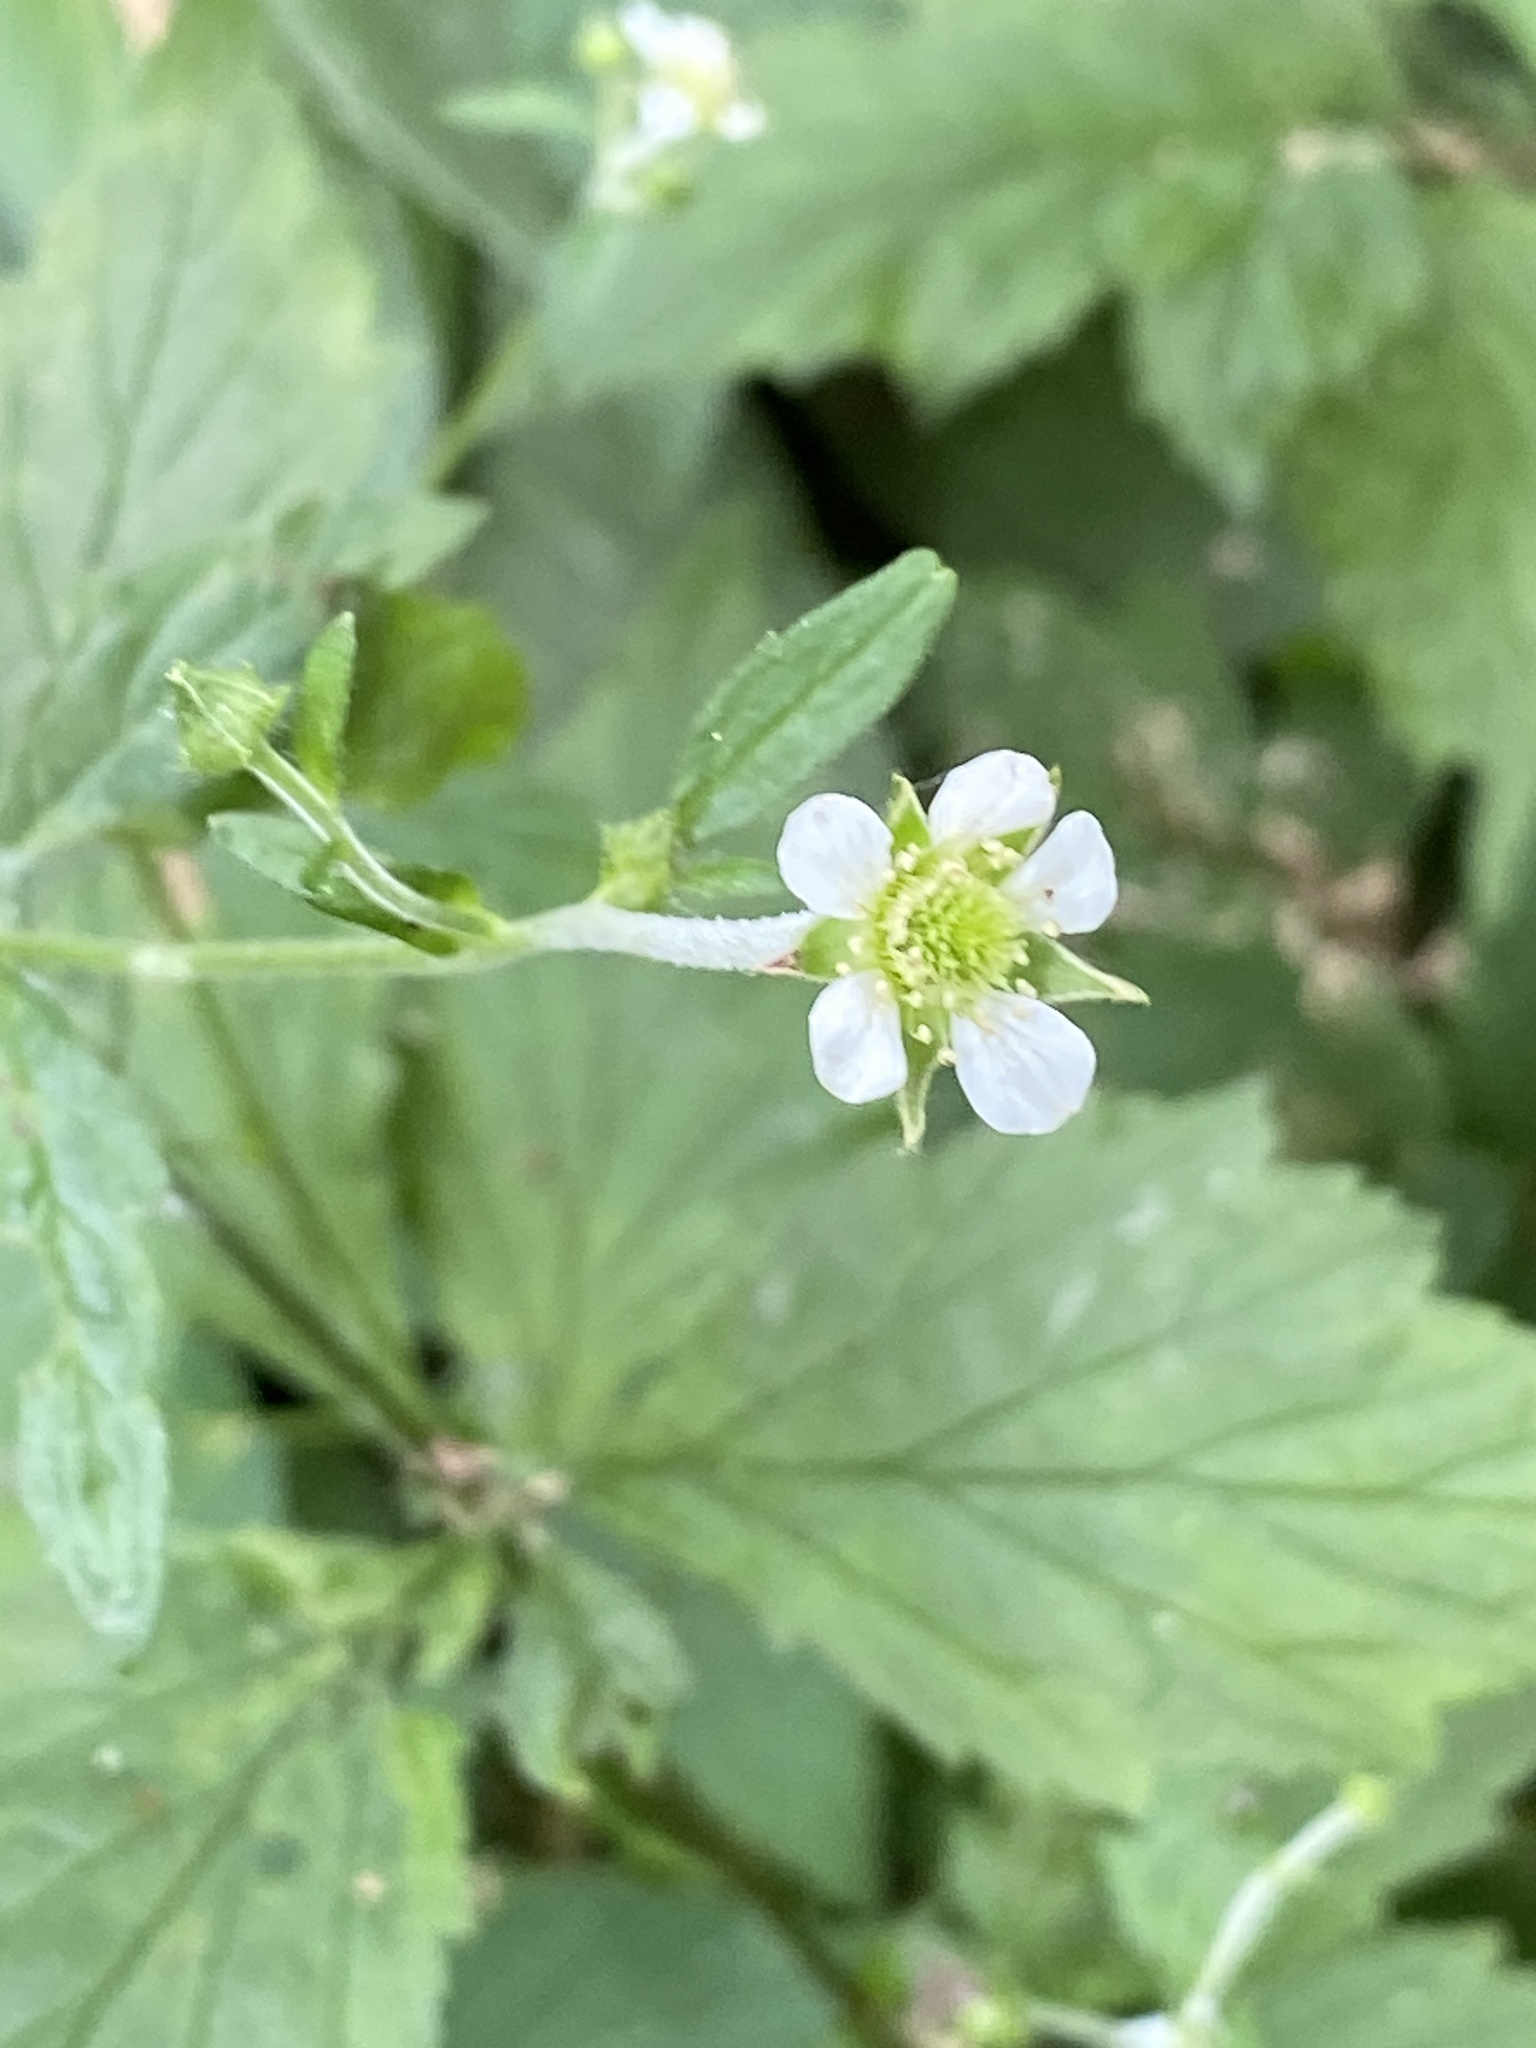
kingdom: Plantae
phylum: Tracheophyta
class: Magnoliopsida
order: Rosales
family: Rosaceae
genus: Geum
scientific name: Geum canadense
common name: White avens
